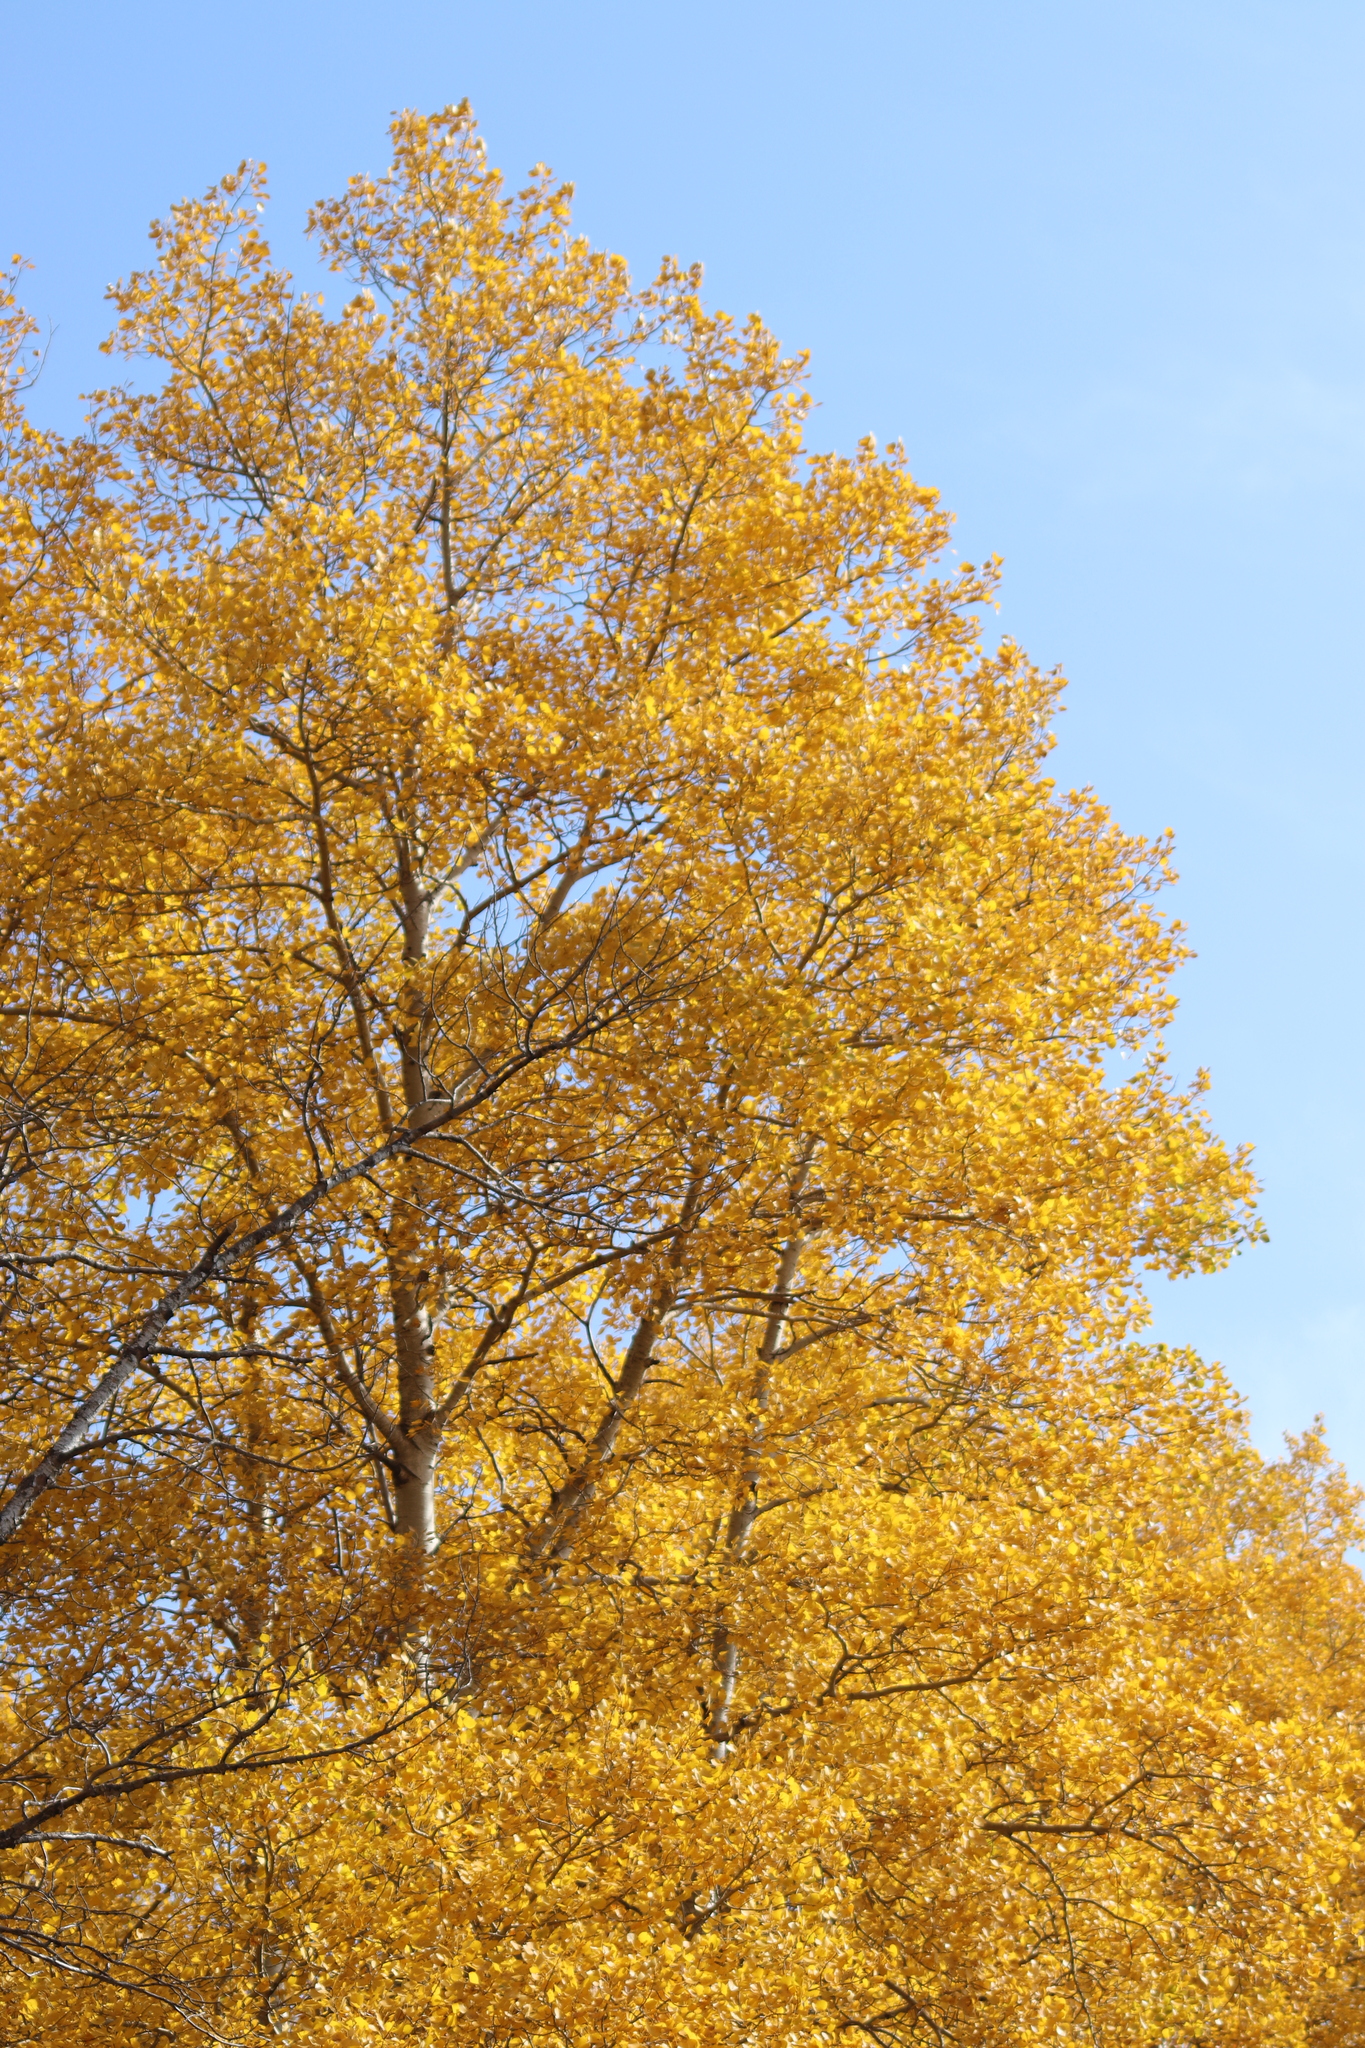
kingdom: Plantae
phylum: Tracheophyta
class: Magnoliopsida
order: Malpighiales
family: Salicaceae
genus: Populus
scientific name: Populus tremuloides
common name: Quaking aspen
